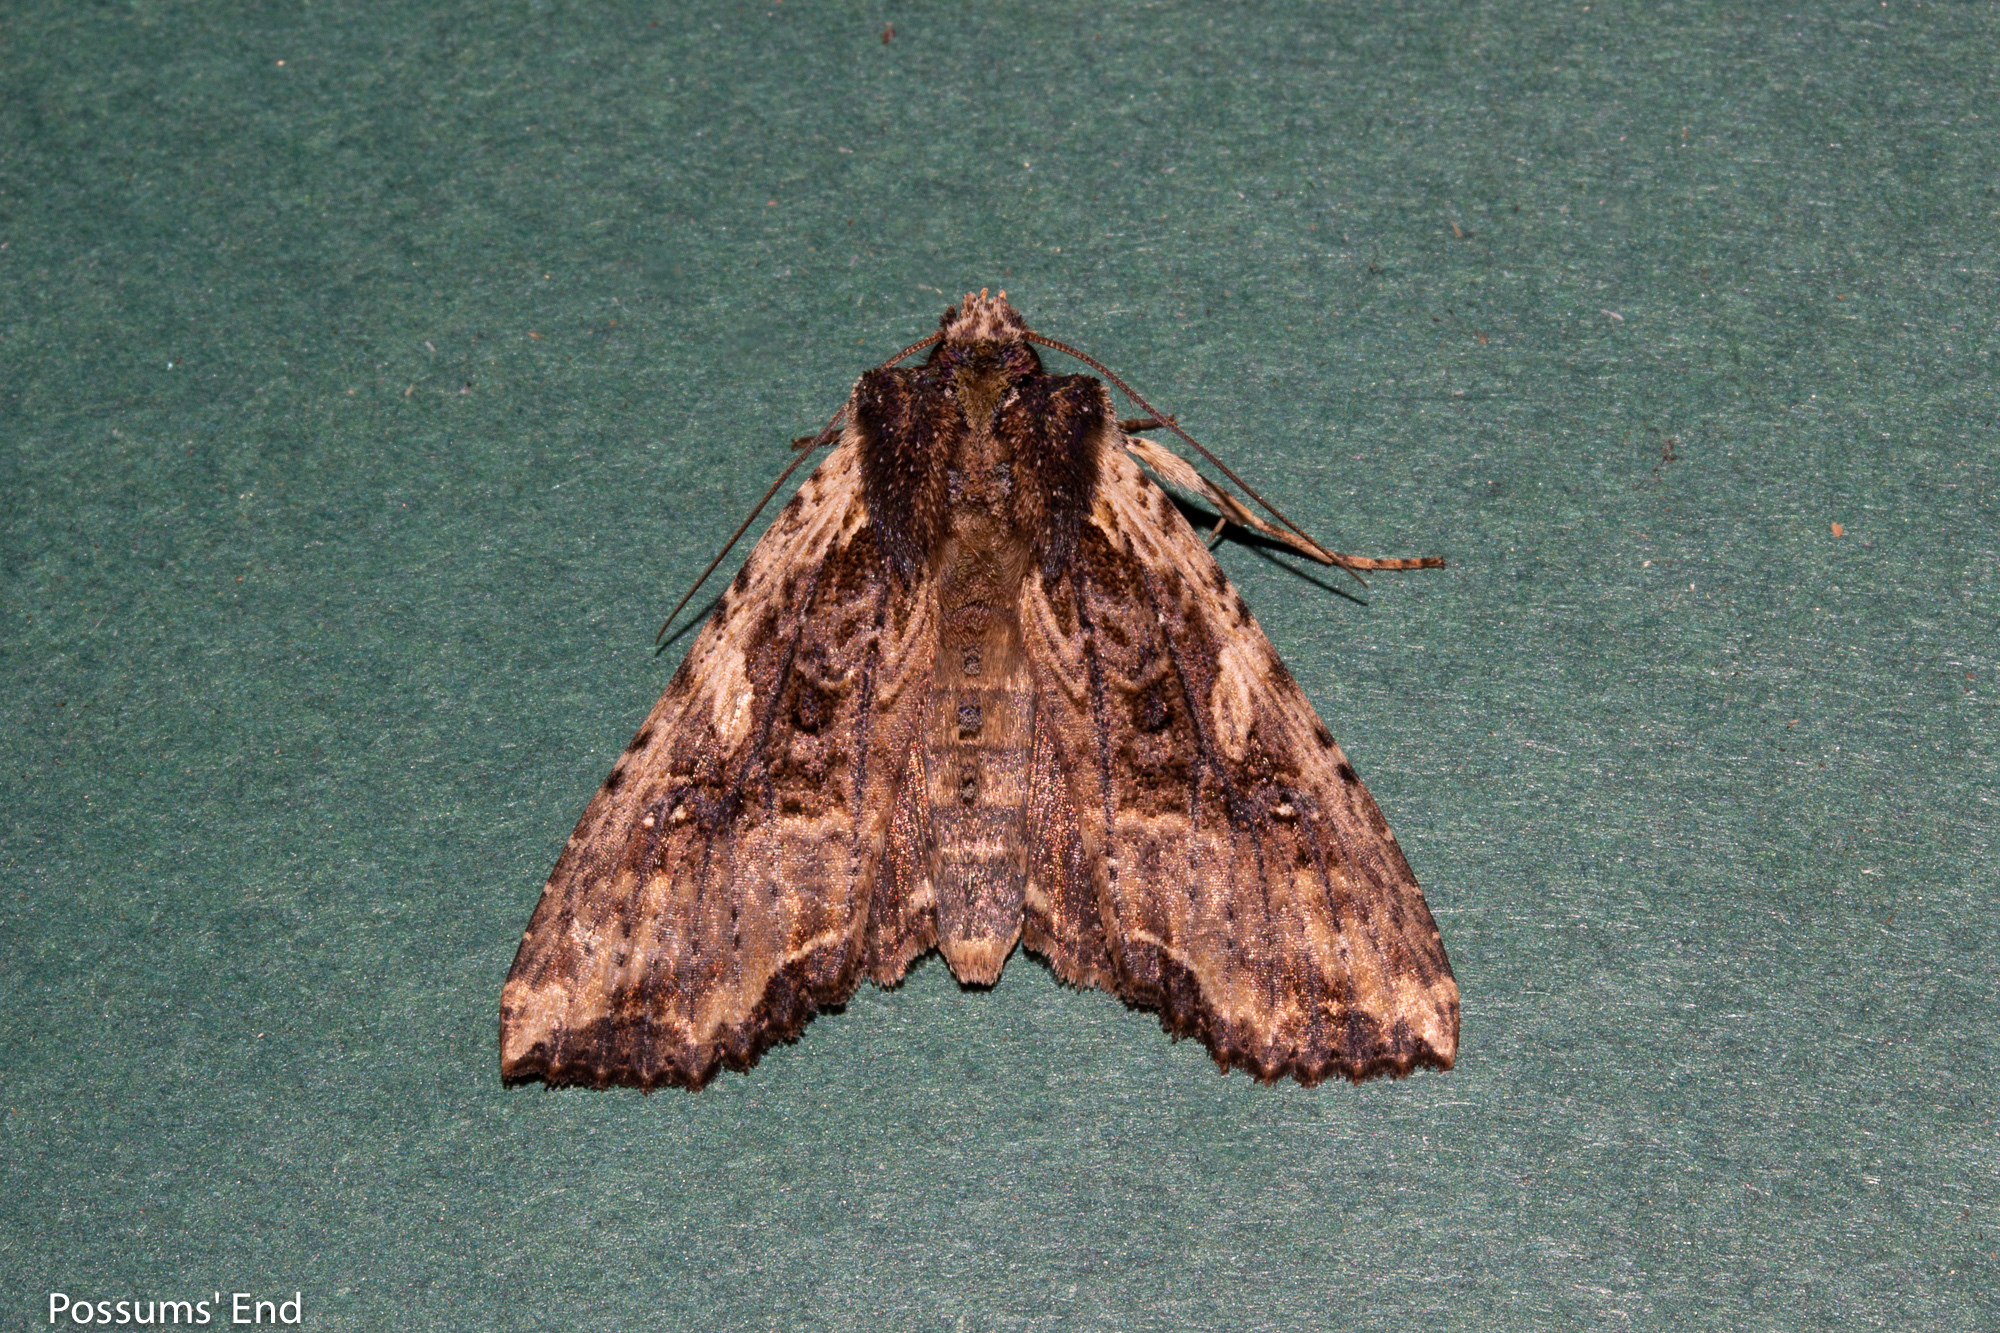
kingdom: Animalia
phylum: Arthropoda
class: Insecta
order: Lepidoptera
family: Noctuidae
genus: Meterana
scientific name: Meterana stipata
